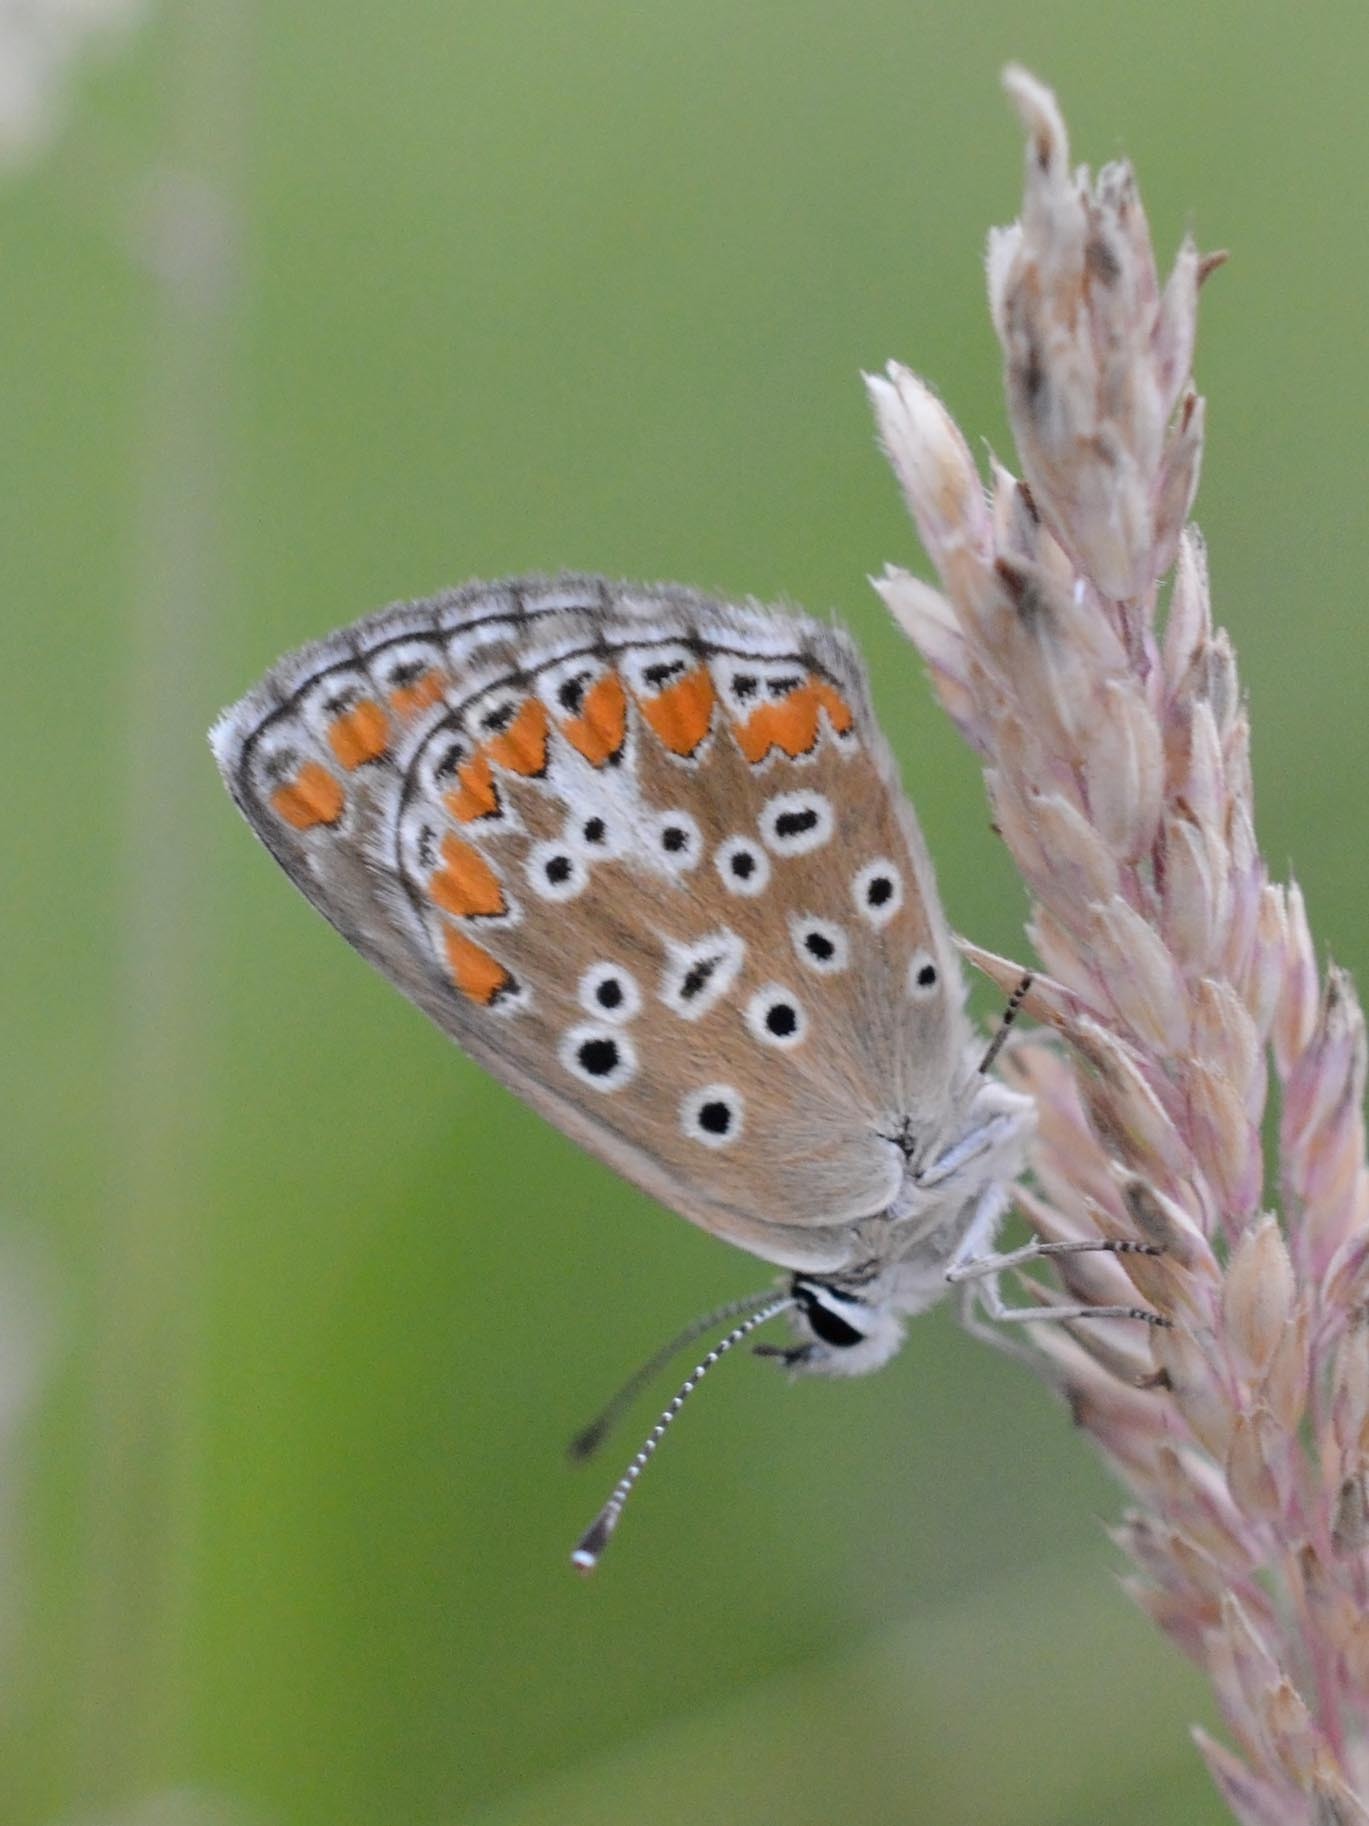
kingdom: Animalia
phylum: Arthropoda
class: Insecta
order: Lepidoptera
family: Lycaenidae
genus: Aricia
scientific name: Aricia agestis
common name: Brown argus
